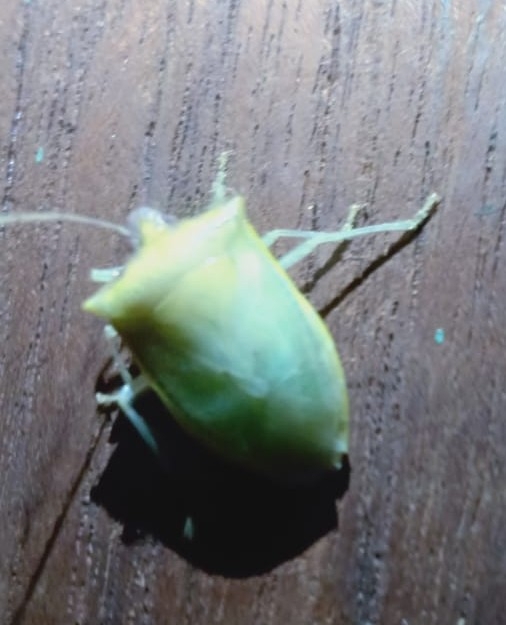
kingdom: Animalia
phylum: Arthropoda
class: Insecta
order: Hemiptera
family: Pentatomidae
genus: Priassus
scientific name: Priassus exemptus
